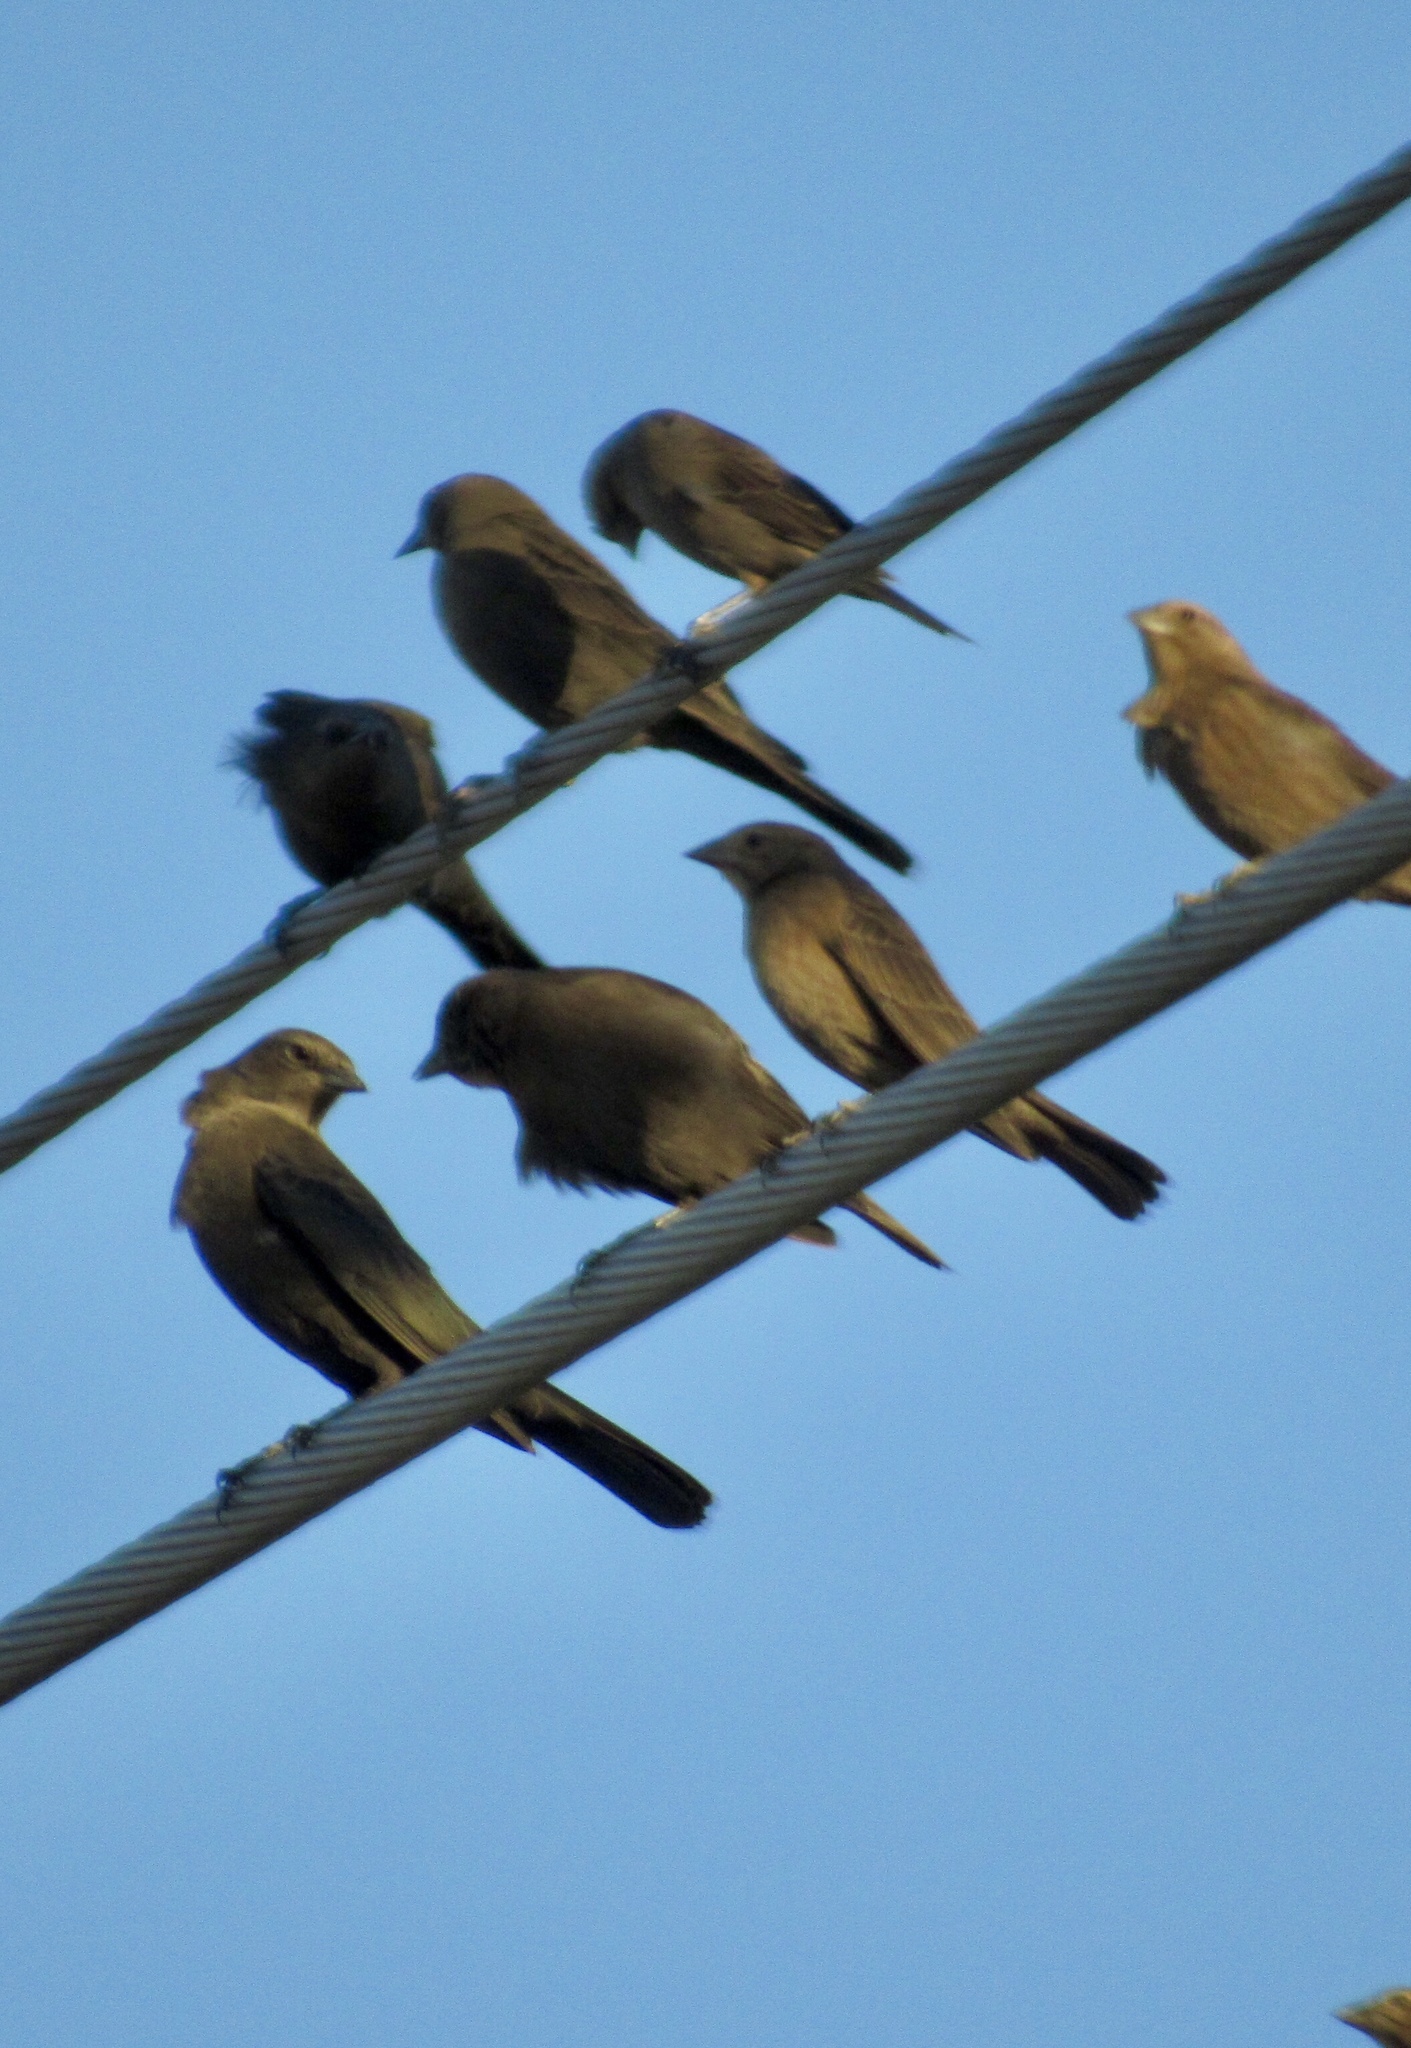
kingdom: Animalia
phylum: Chordata
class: Aves
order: Passeriformes
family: Icteridae
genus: Euphagus
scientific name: Euphagus cyanocephalus
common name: Brewer's blackbird
